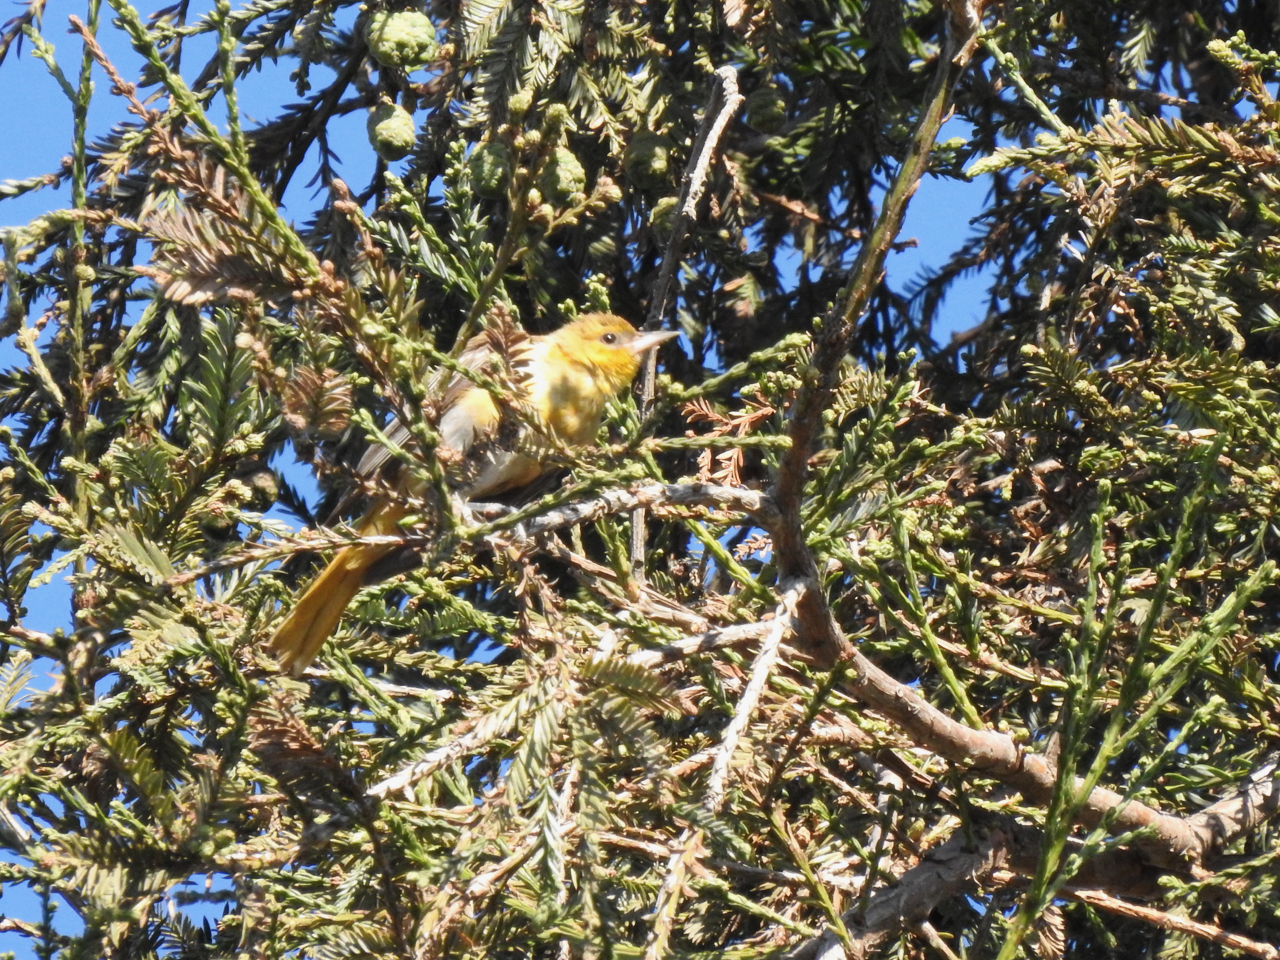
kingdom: Animalia
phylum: Chordata
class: Aves
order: Passeriformes
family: Icteridae
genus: Icterus
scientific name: Icterus bullockii
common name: Bullock's oriole
